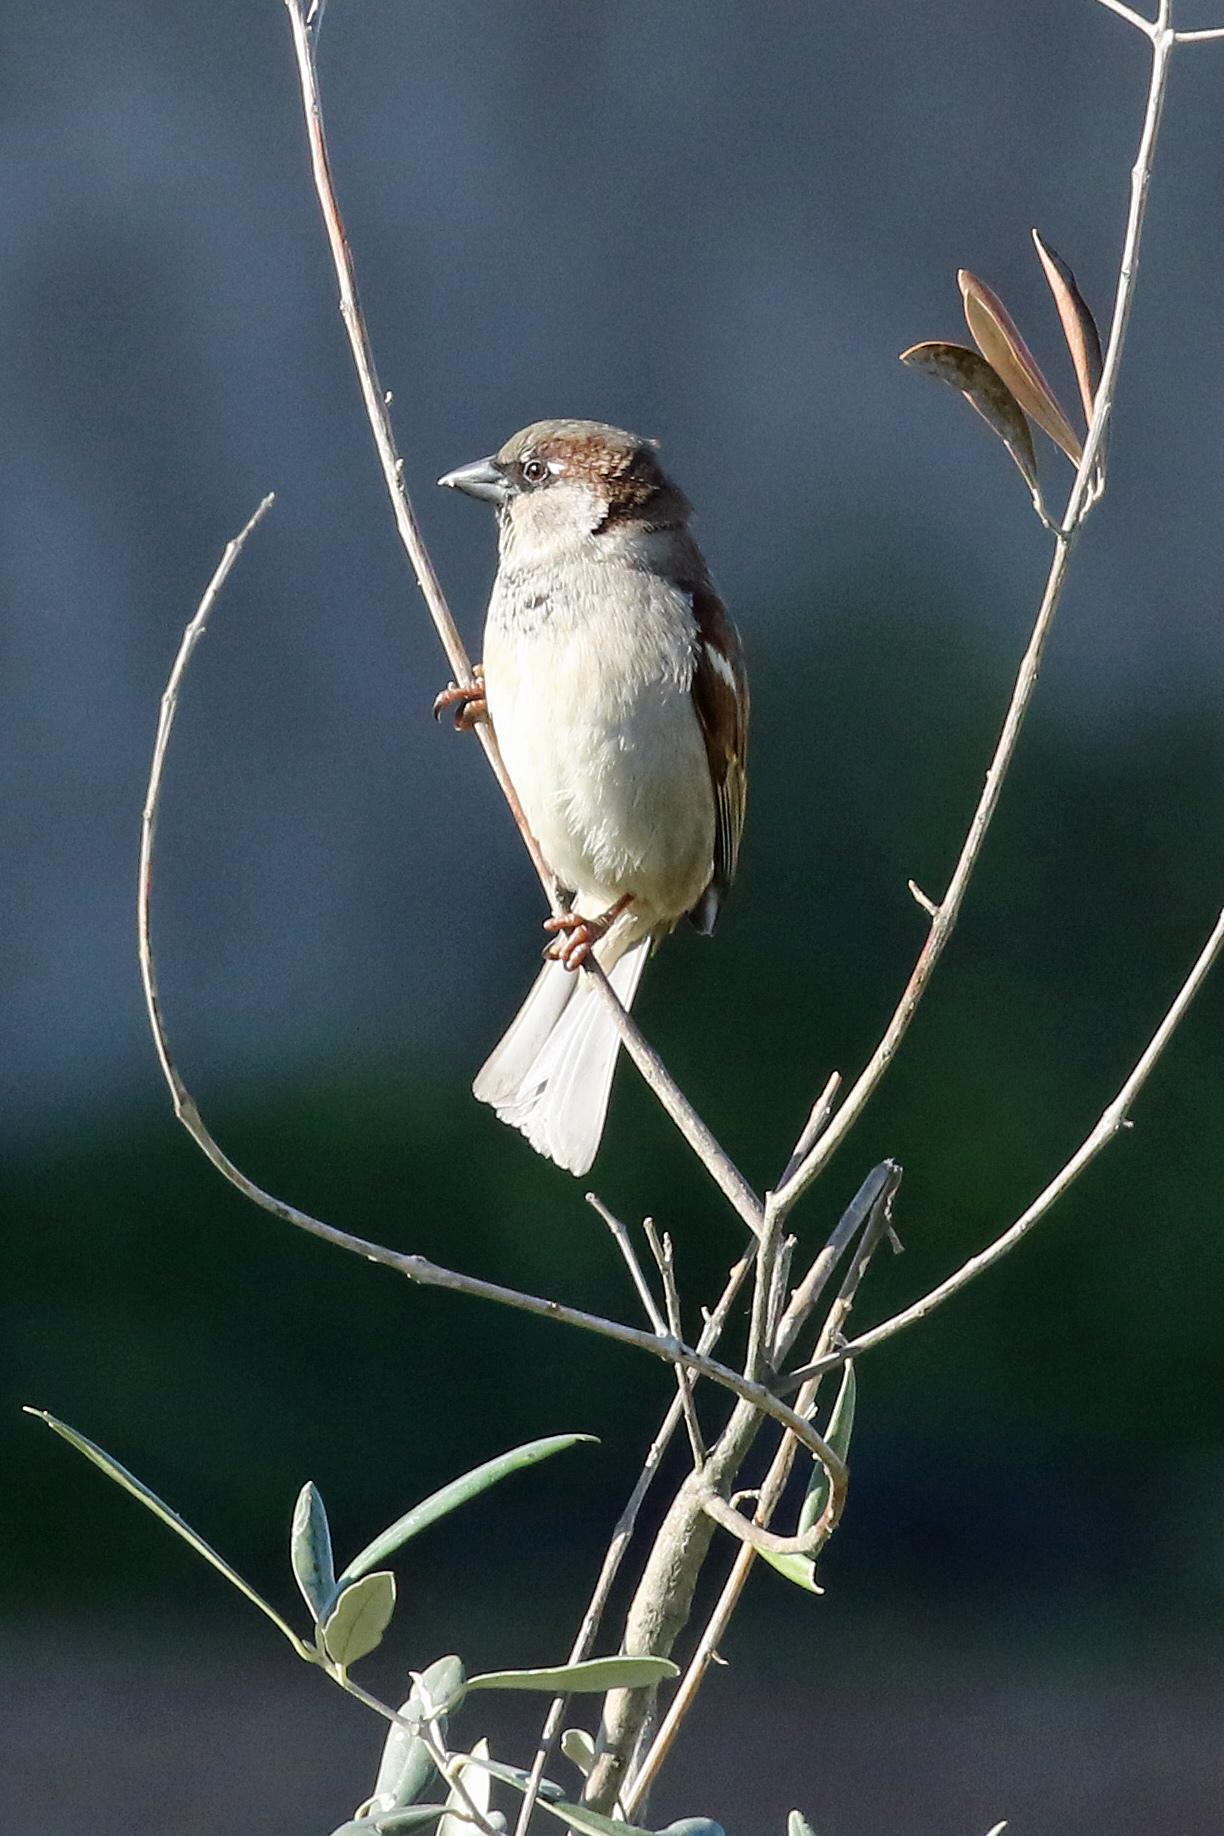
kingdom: Animalia
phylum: Chordata
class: Aves
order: Passeriformes
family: Passeridae
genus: Passer
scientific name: Passer domesticus
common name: House sparrow
